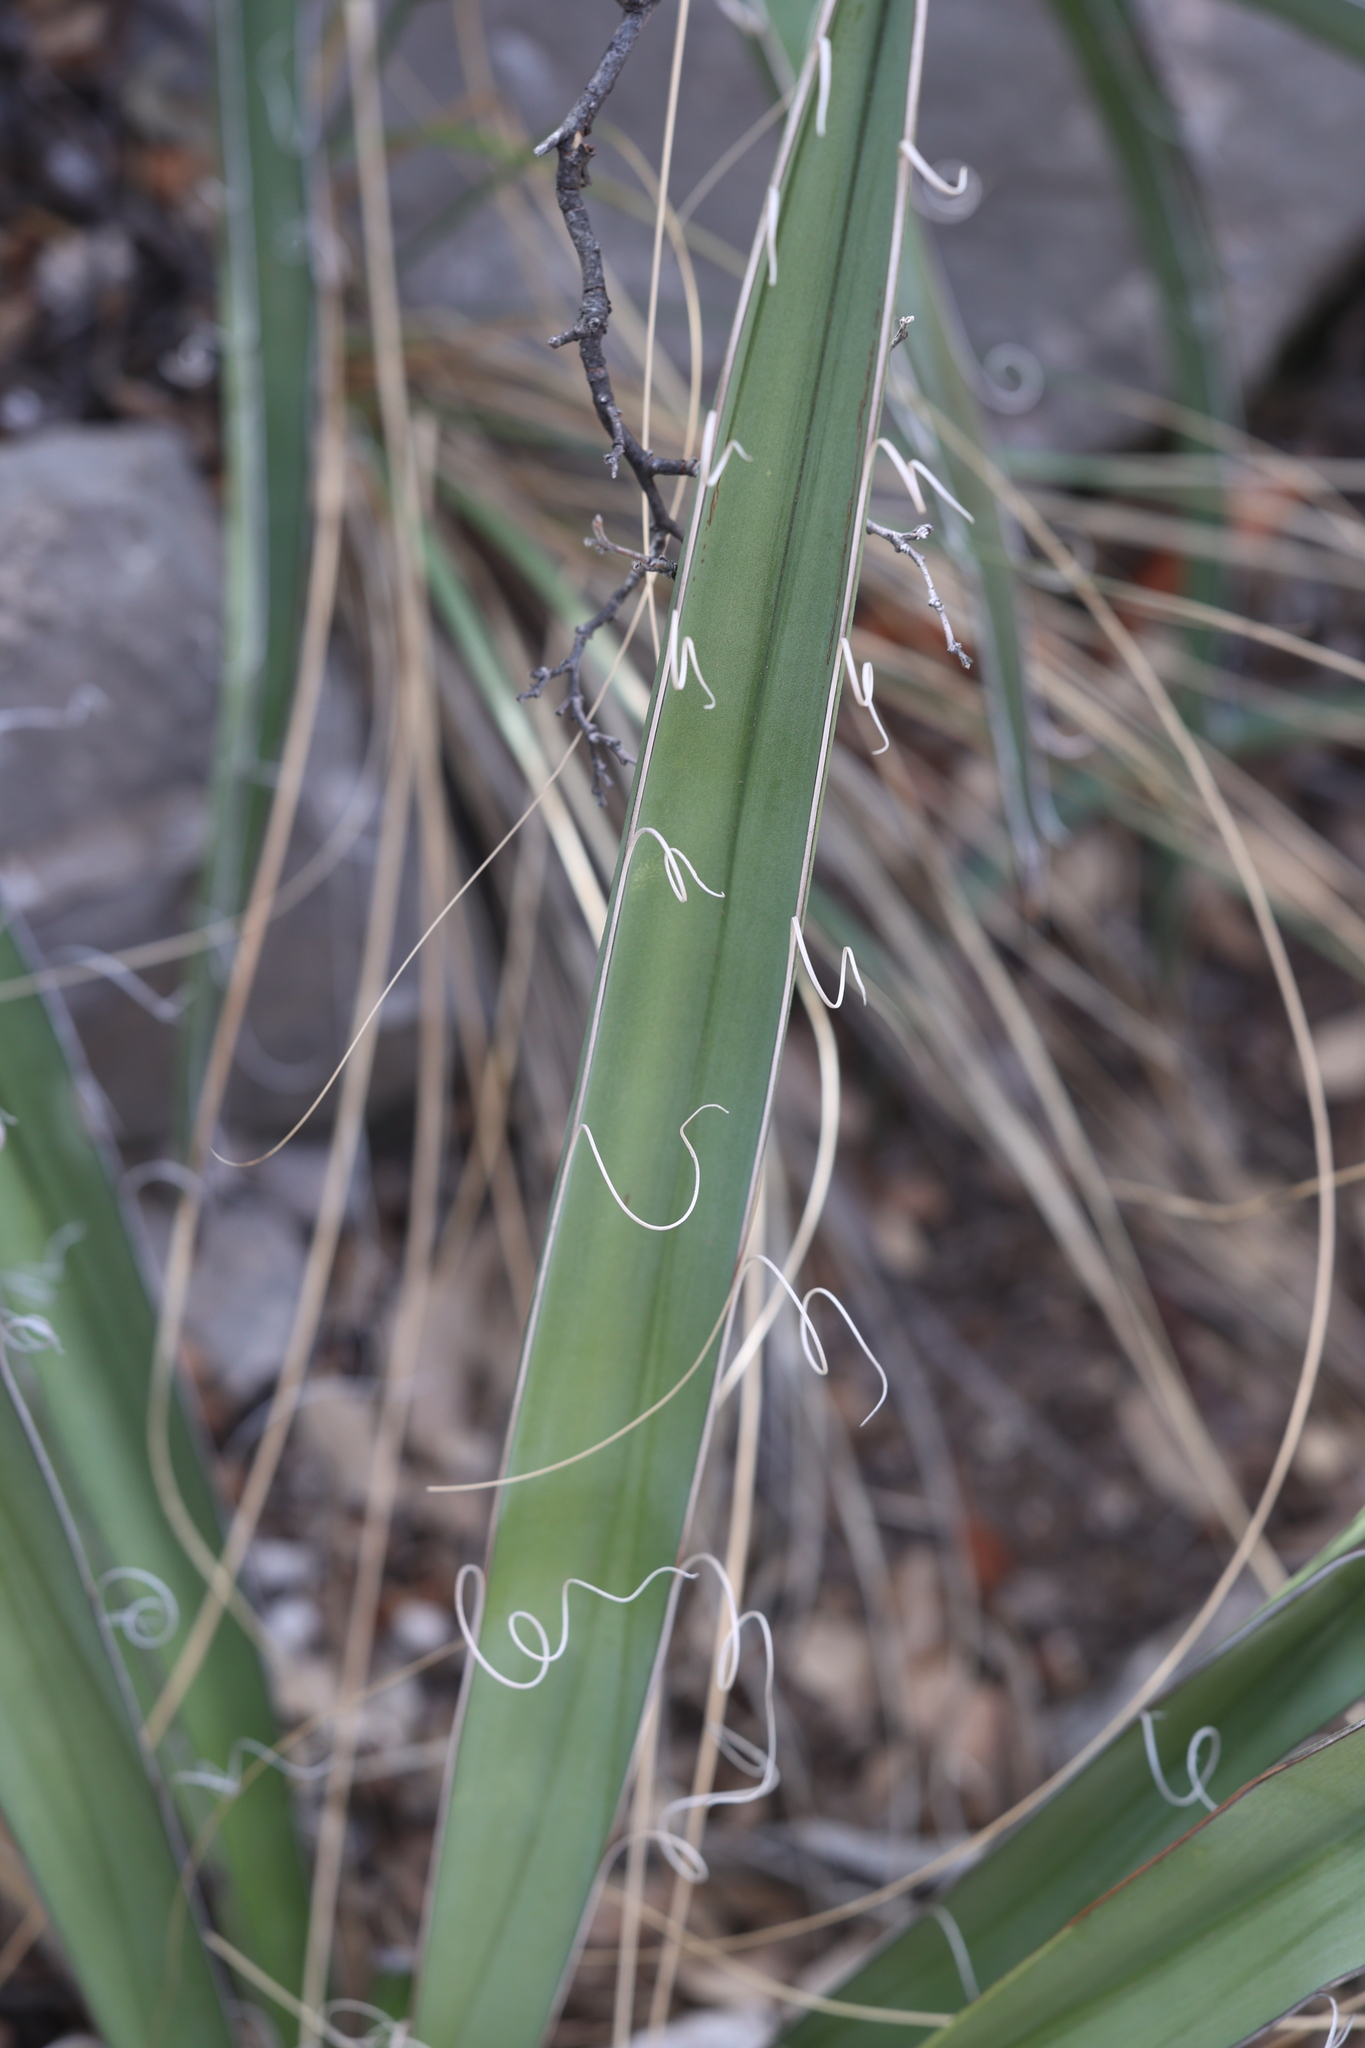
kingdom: Plantae
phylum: Tracheophyta
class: Liliopsida
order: Asparagales
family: Asparagaceae
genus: Yucca
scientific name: Yucca baccata
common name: Banana yucca
